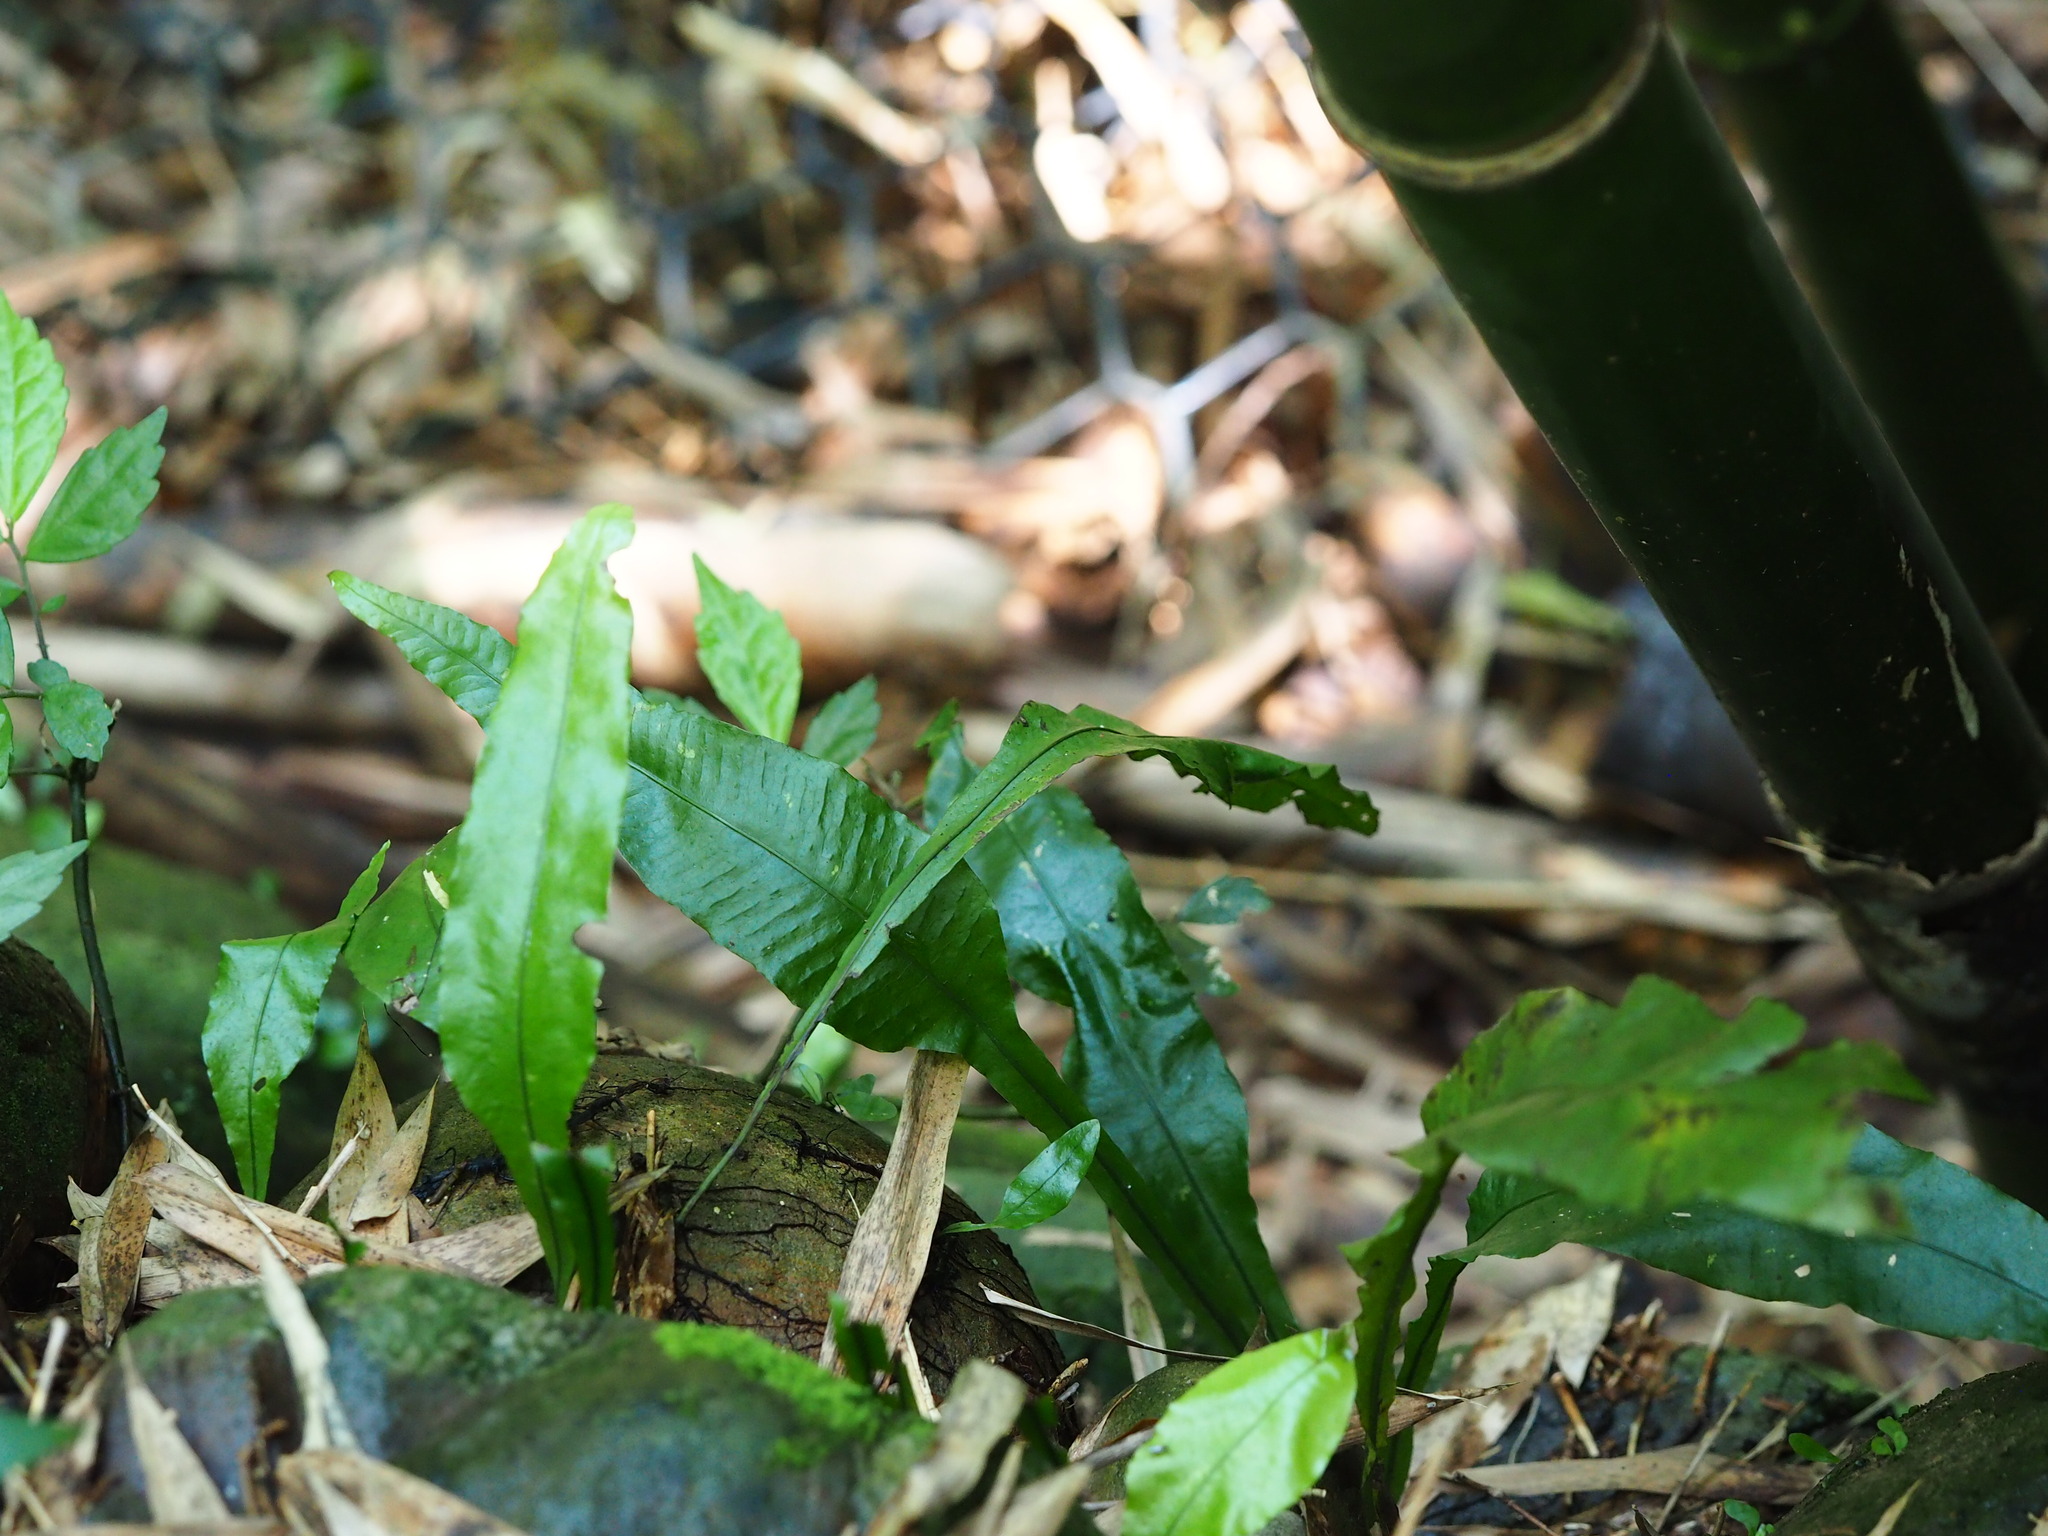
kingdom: Plantae
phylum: Tracheophyta
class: Polypodiopsida
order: Polypodiales
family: Polypodiaceae
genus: Leptochilus
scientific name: Leptochilus wrightii
